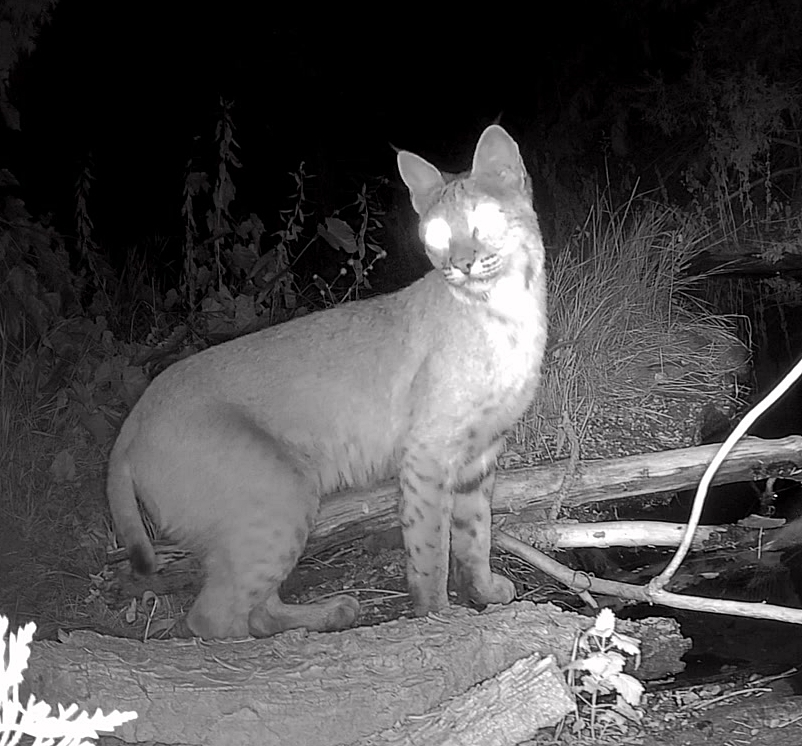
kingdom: Animalia
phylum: Chordata
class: Mammalia
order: Carnivora
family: Felidae
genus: Lynx
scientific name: Lynx rufus
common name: Bobcat
